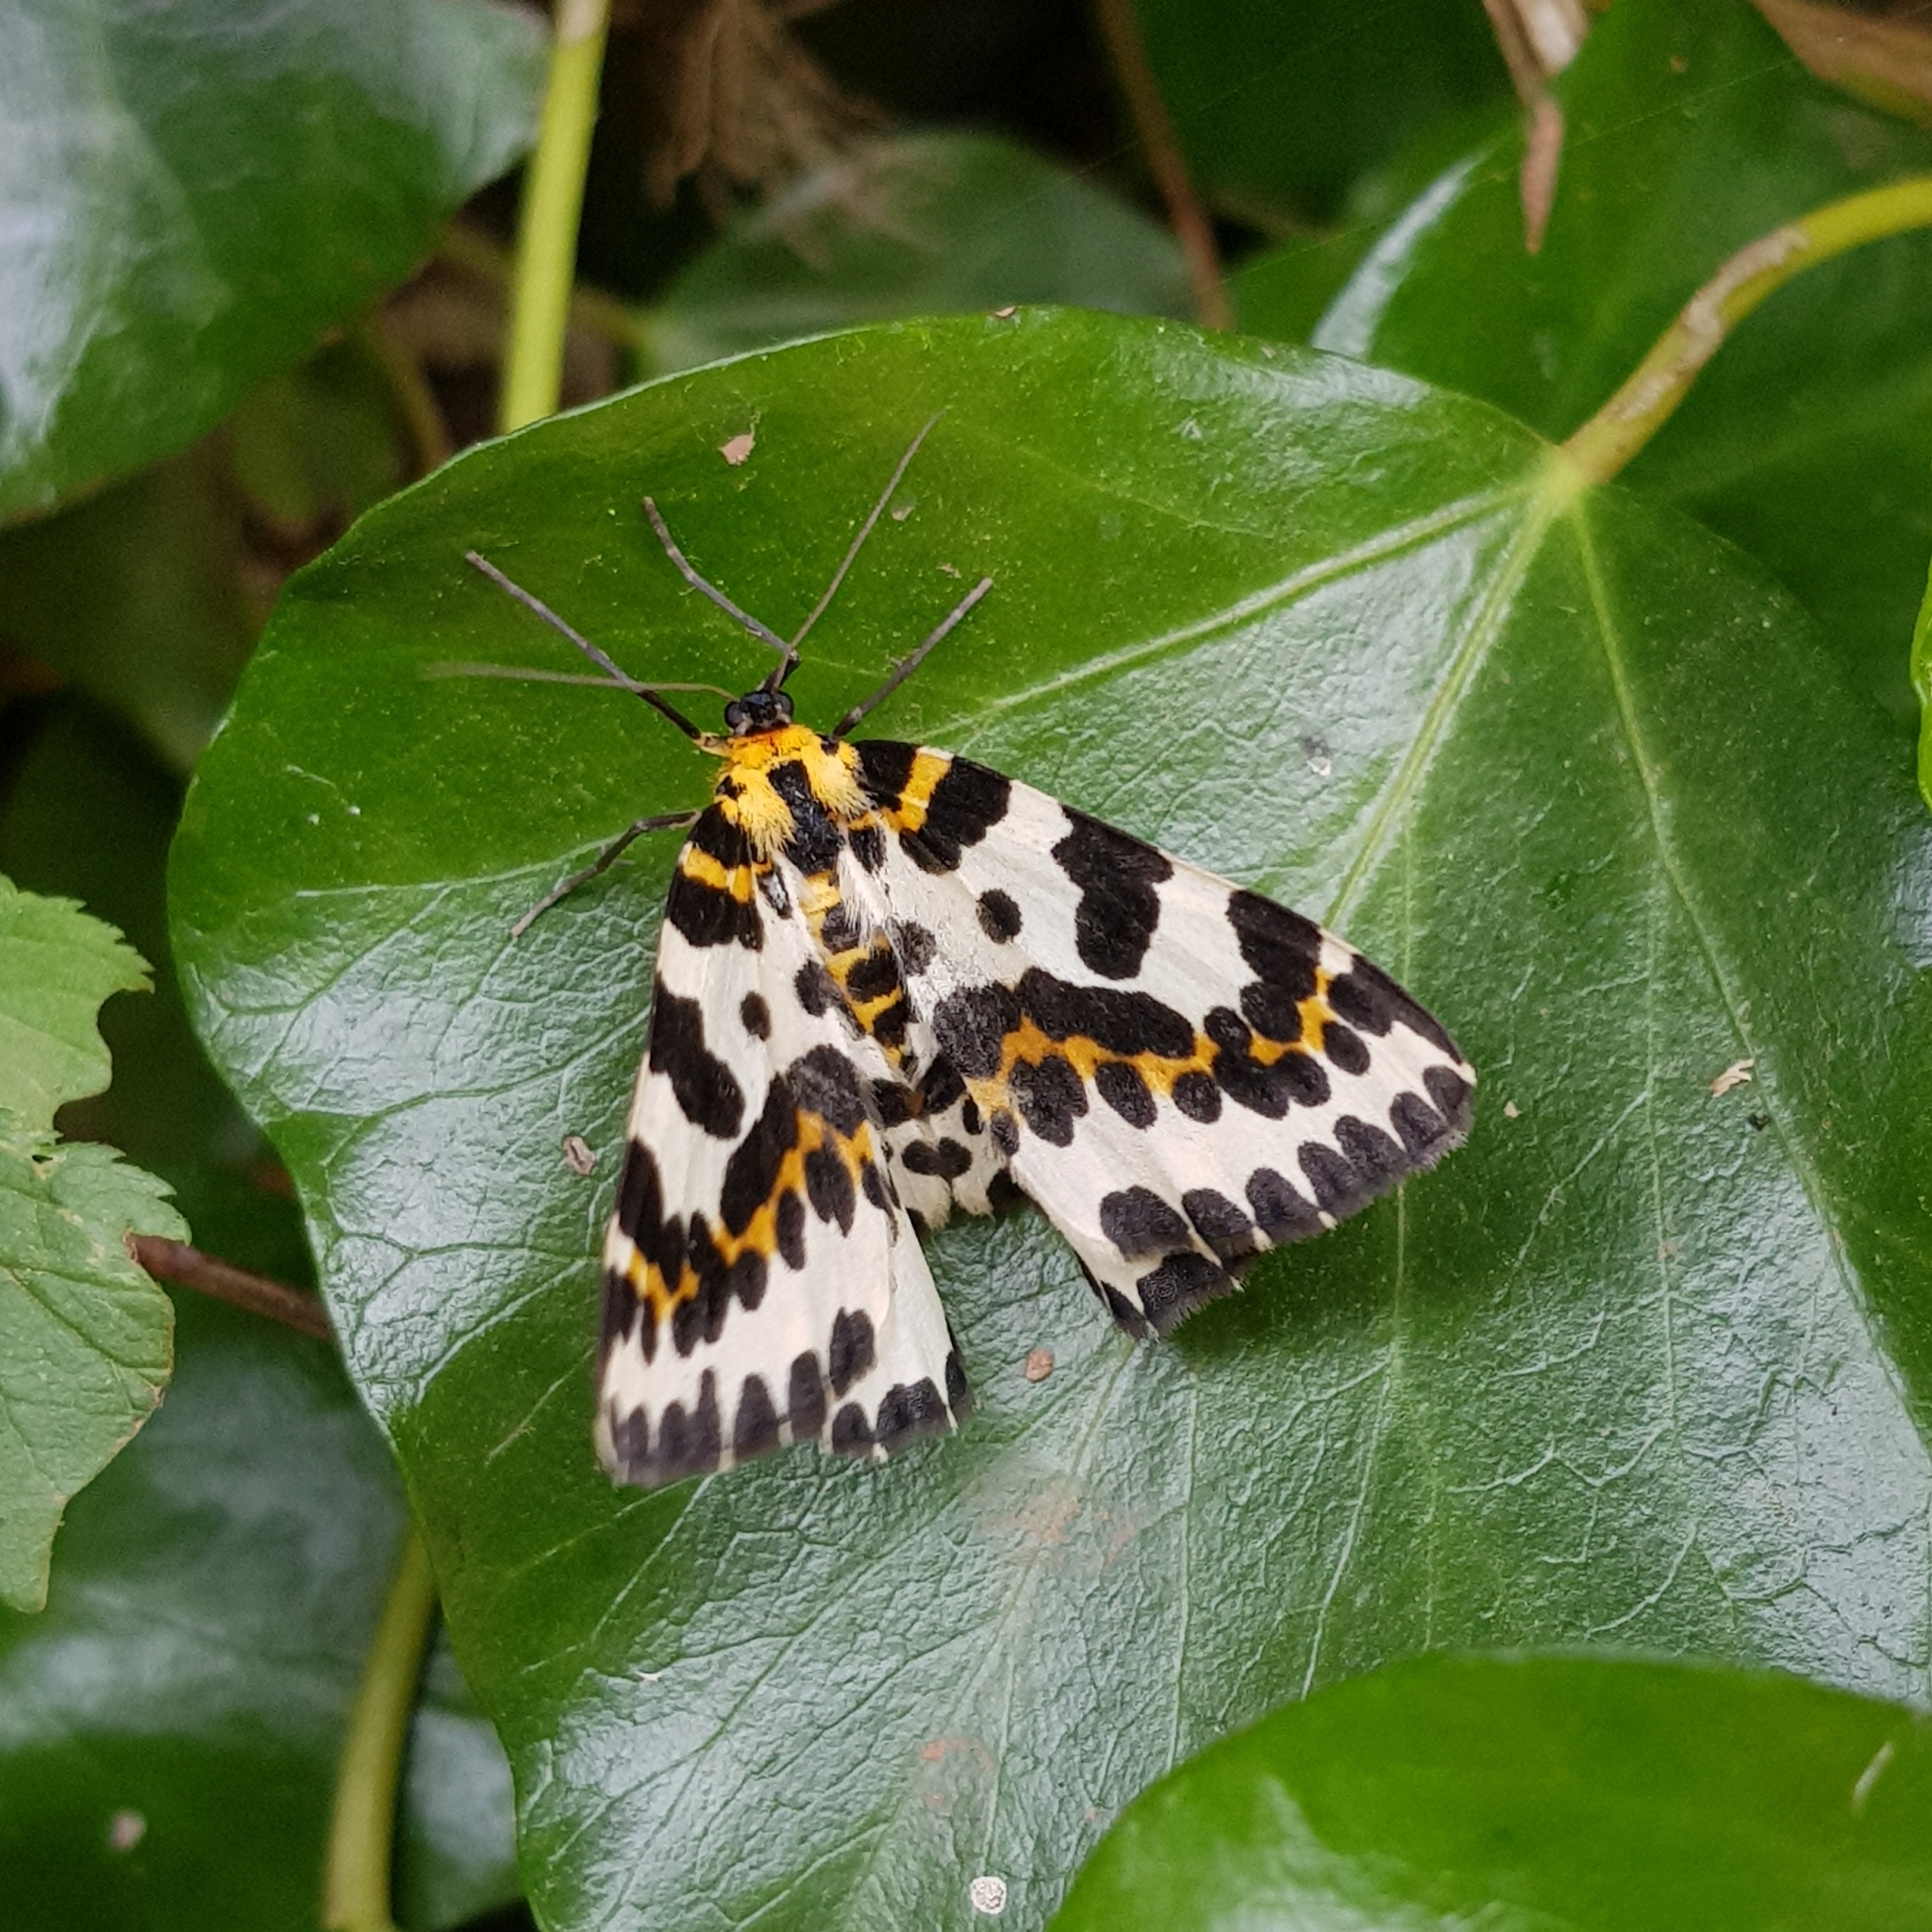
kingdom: Animalia
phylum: Arthropoda
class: Insecta
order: Lepidoptera
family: Geometridae
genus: Abraxas
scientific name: Abraxas grossulariata
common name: Magpie
